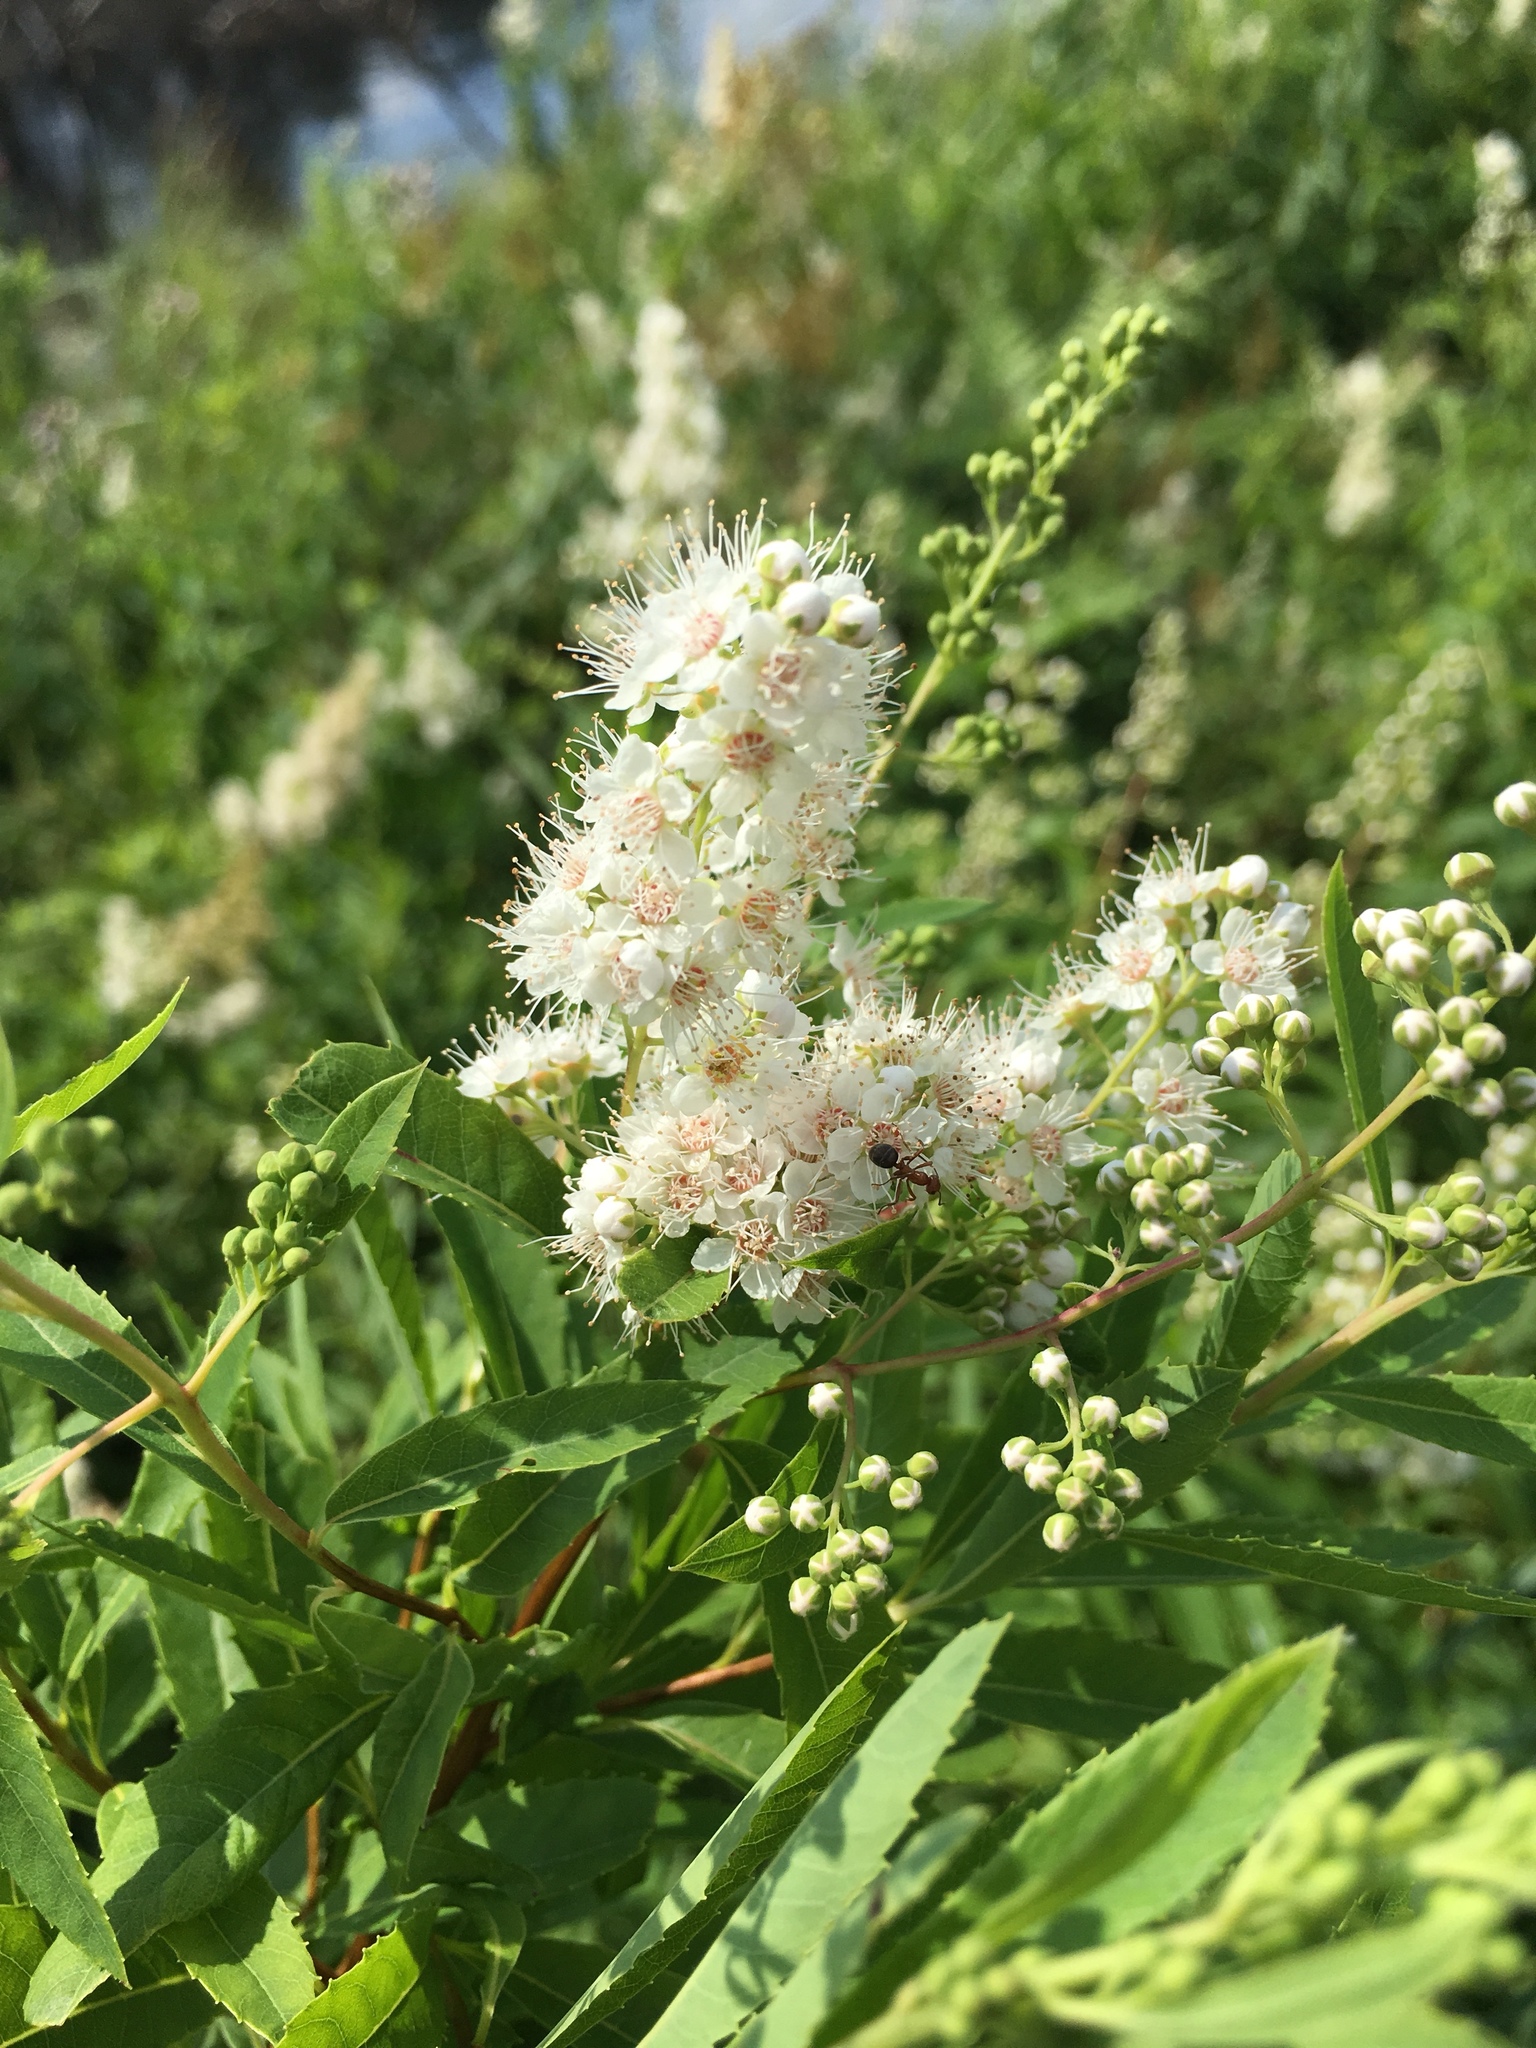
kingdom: Plantae
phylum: Tracheophyta
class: Magnoliopsida
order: Rosales
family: Rosaceae
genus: Spiraea
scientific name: Spiraea alba
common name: Pale bridewort
